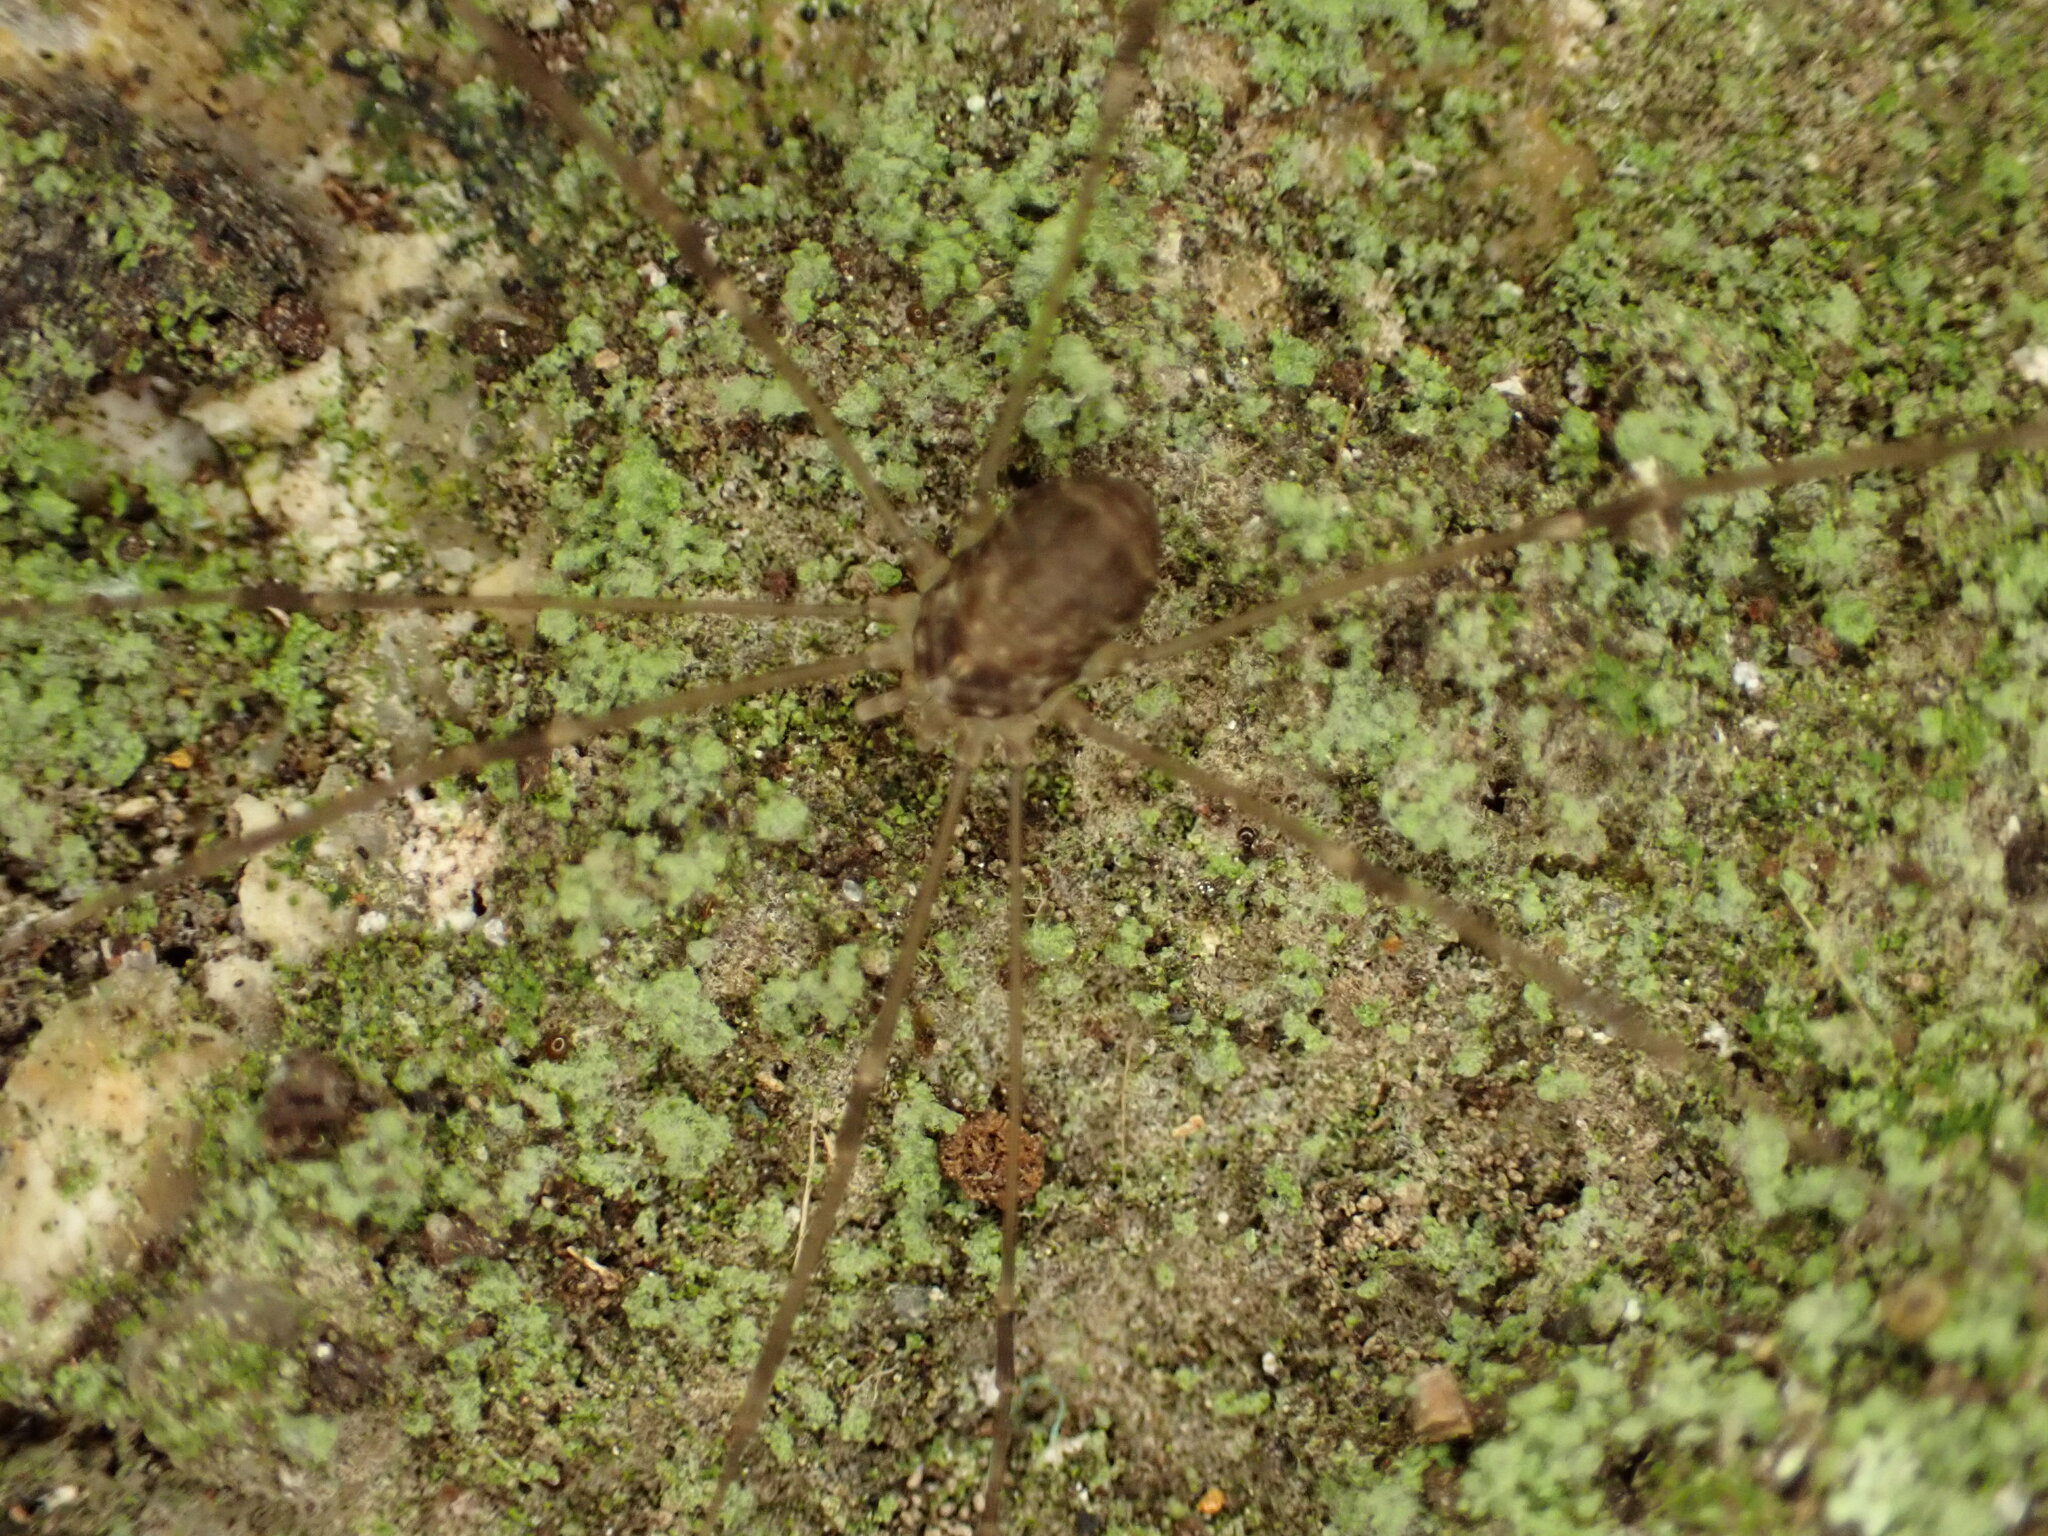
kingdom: Animalia
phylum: Arthropoda
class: Arachnida
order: Opiliones
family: Sclerosomatidae
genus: Leiobunum
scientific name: Leiobunum blackwalli
